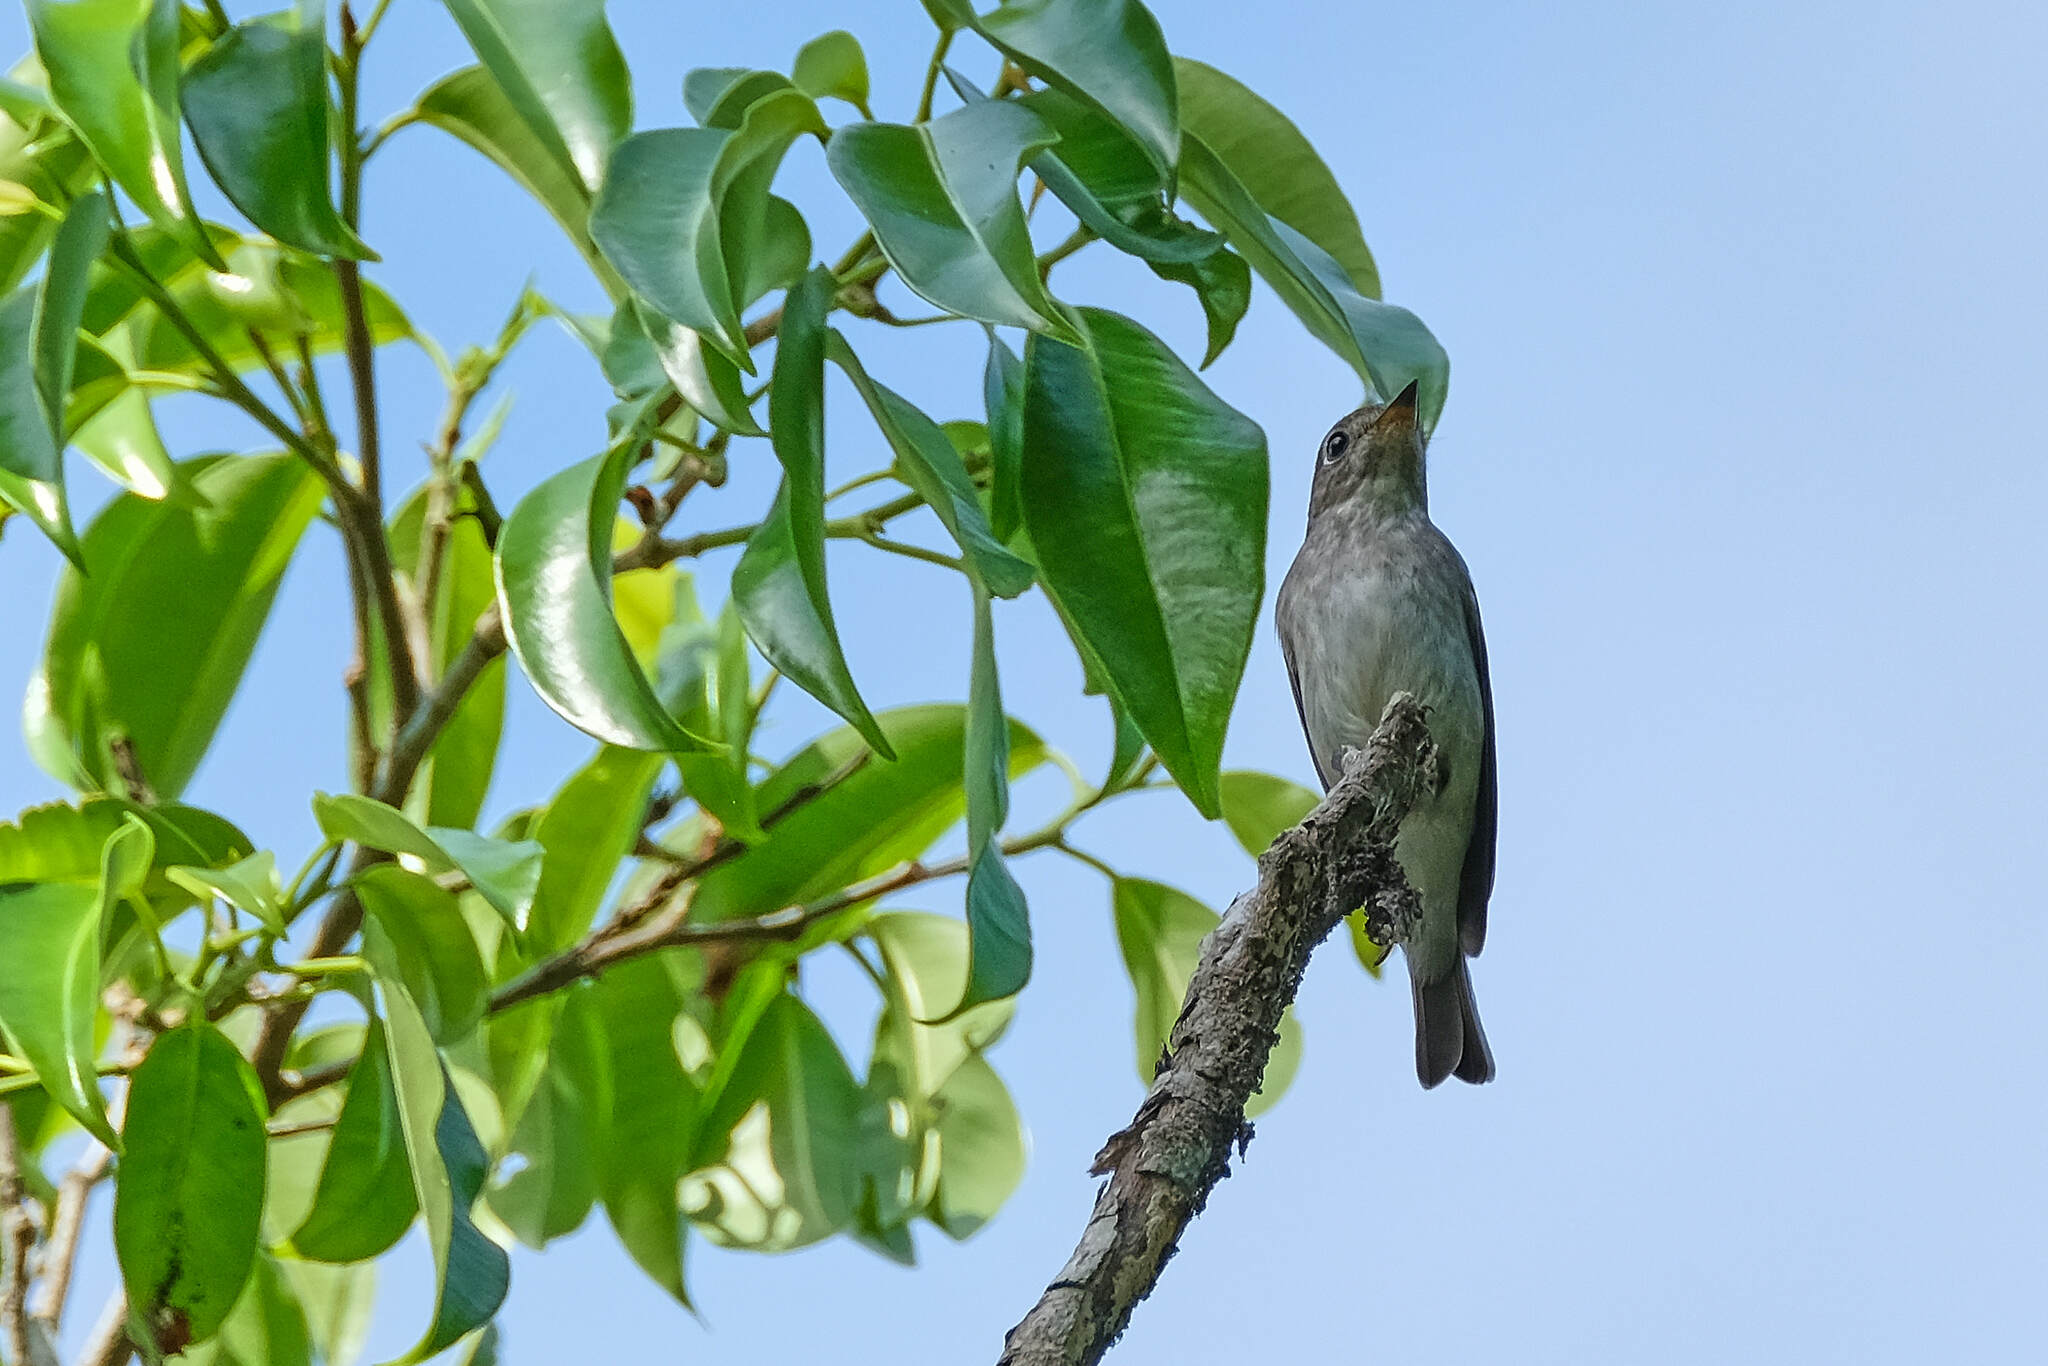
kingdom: Animalia
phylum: Chordata
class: Aves
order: Passeriformes
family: Muscicapidae
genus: Muscicapa
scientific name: Muscicapa latirostris
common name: Asian brown flycatcher
